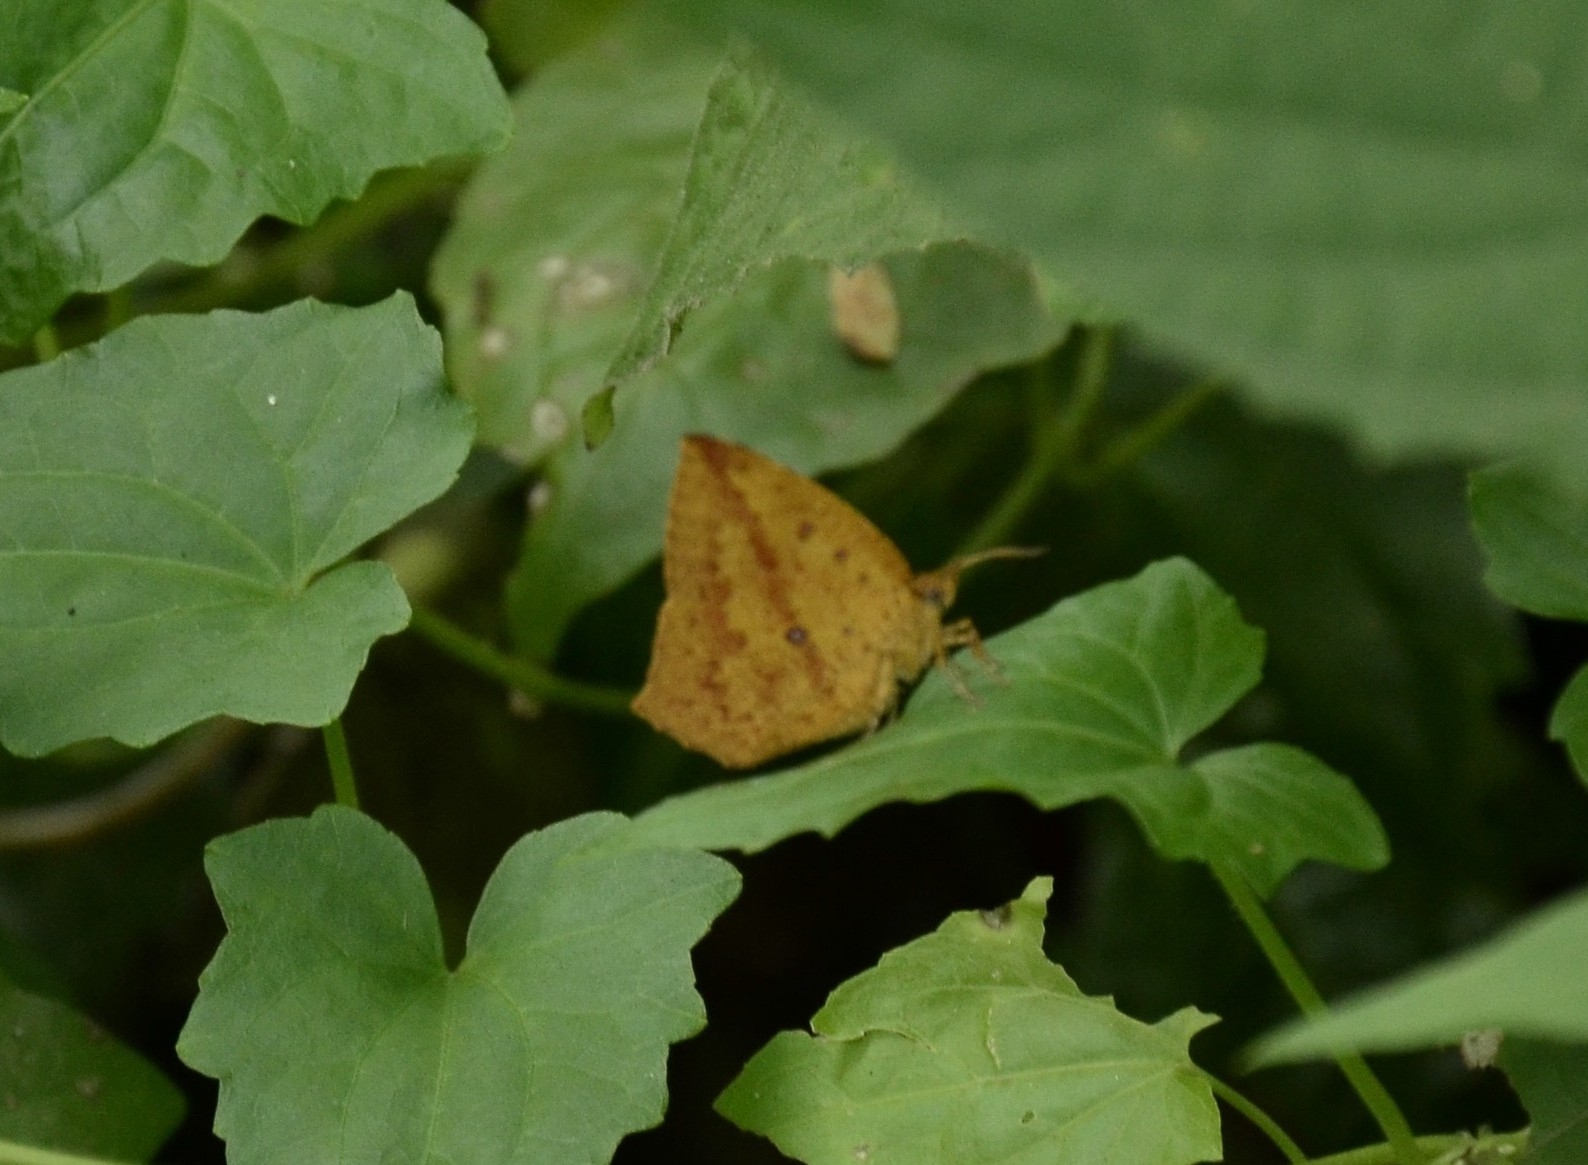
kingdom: Animalia
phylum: Arthropoda
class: Insecta
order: Lepidoptera
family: Callidulidae
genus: Tetragonus
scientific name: Tetragonus catamitus
